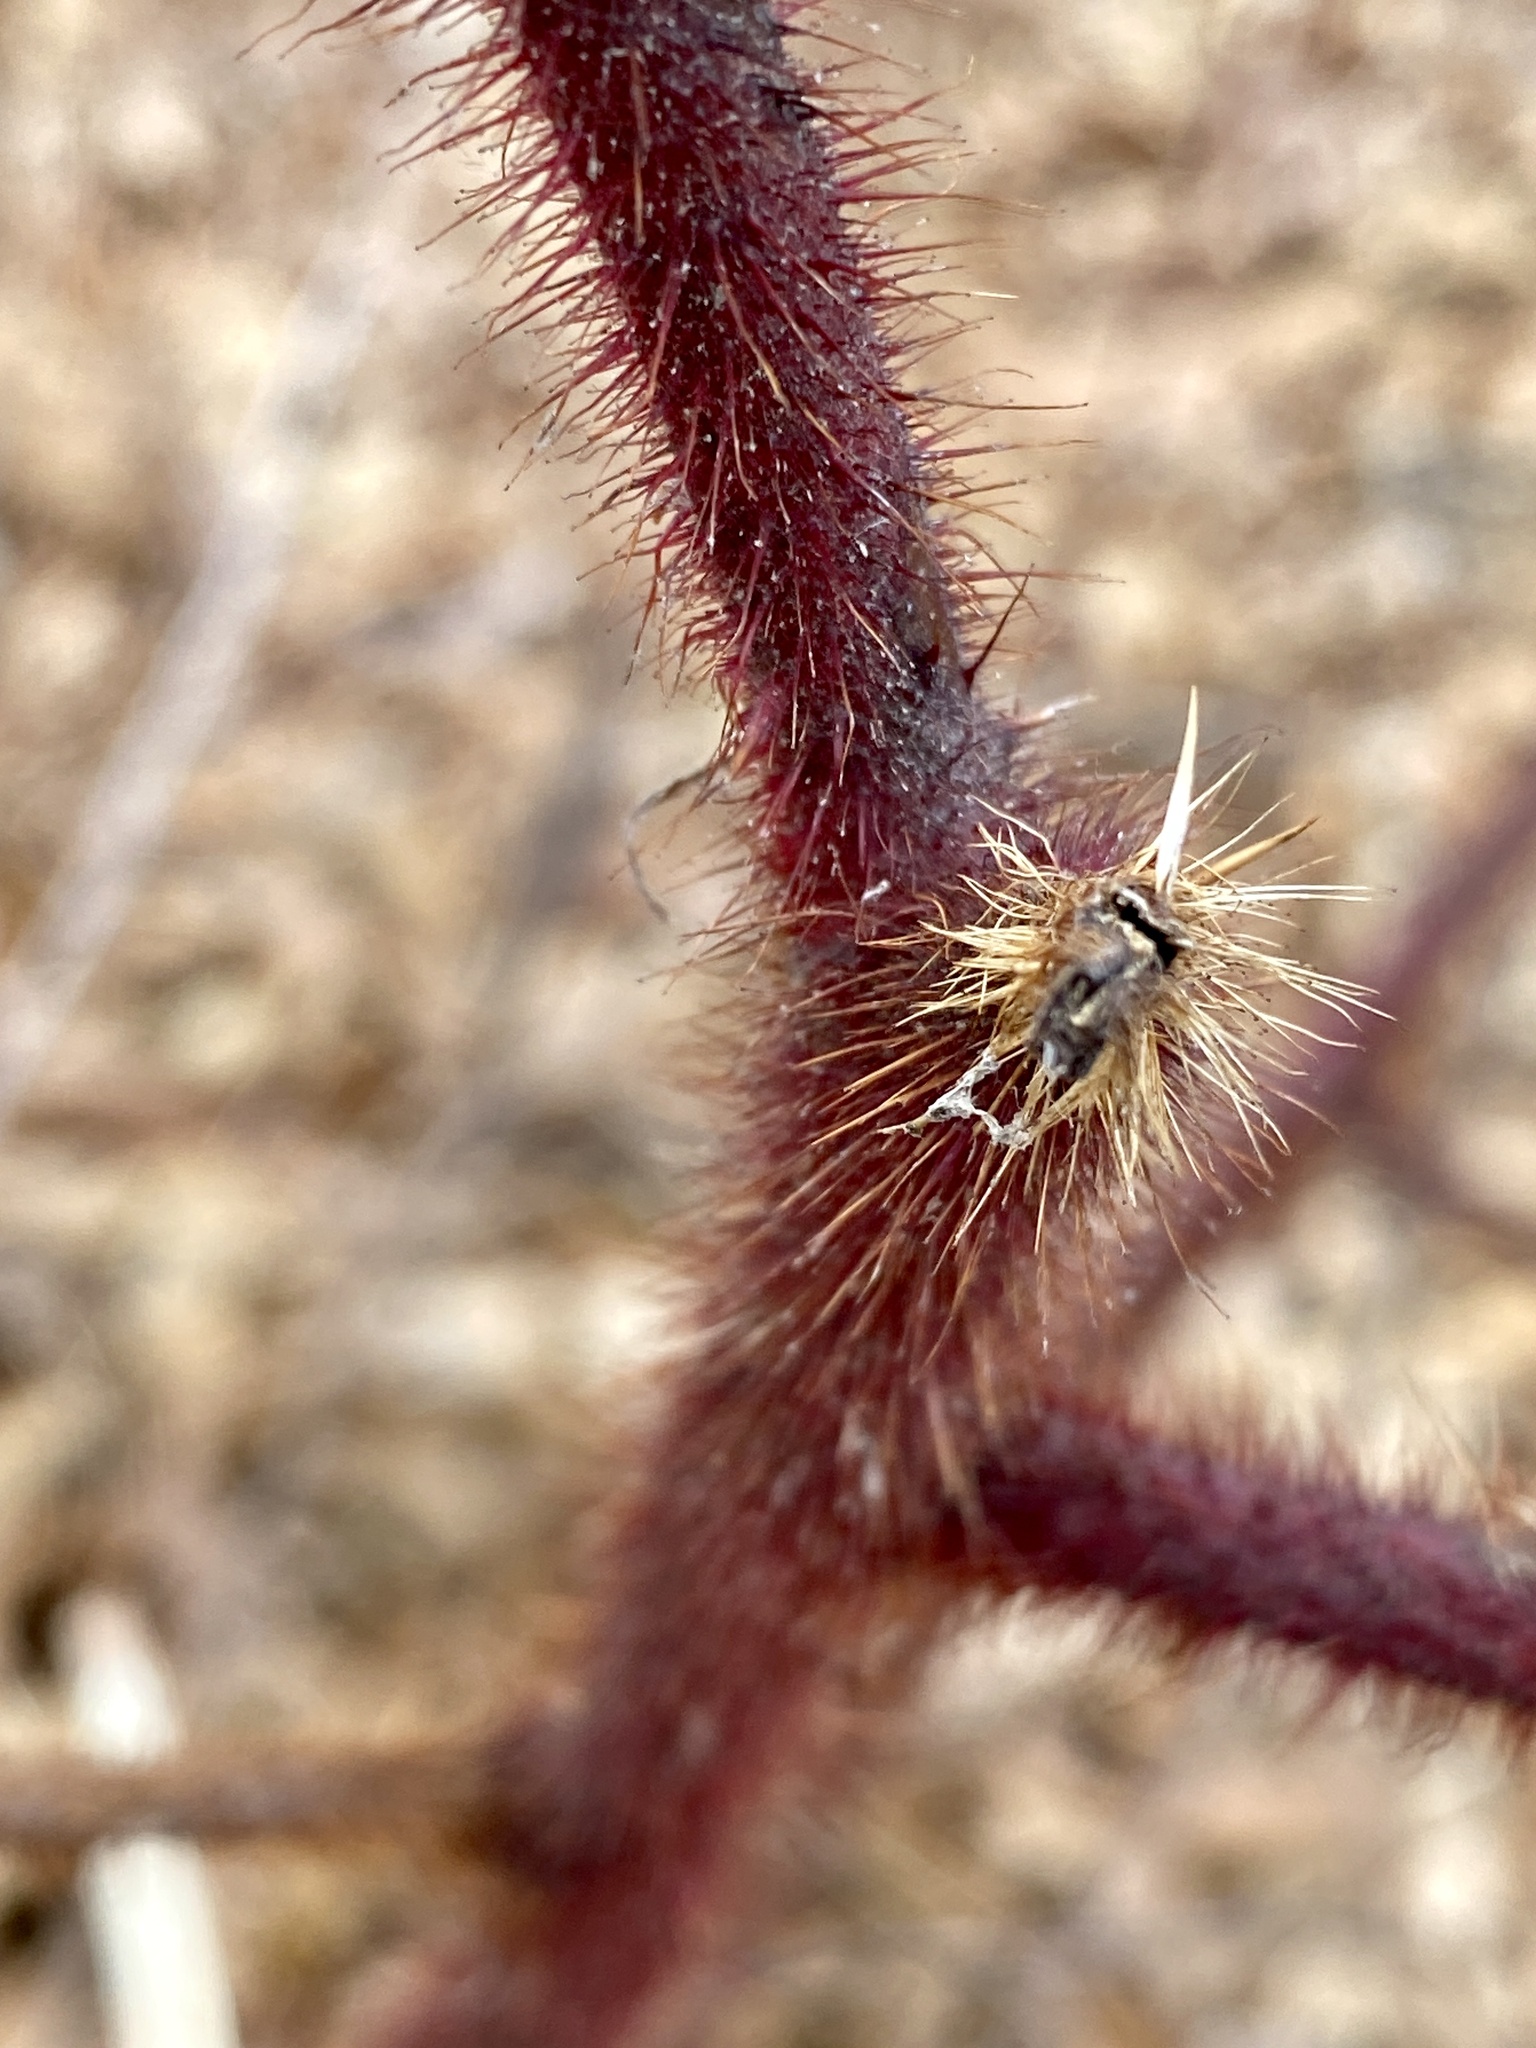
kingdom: Plantae
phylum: Tracheophyta
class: Magnoliopsida
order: Rosales
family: Rosaceae
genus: Rubus
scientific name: Rubus phoenicolasius
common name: Japanese wineberry
